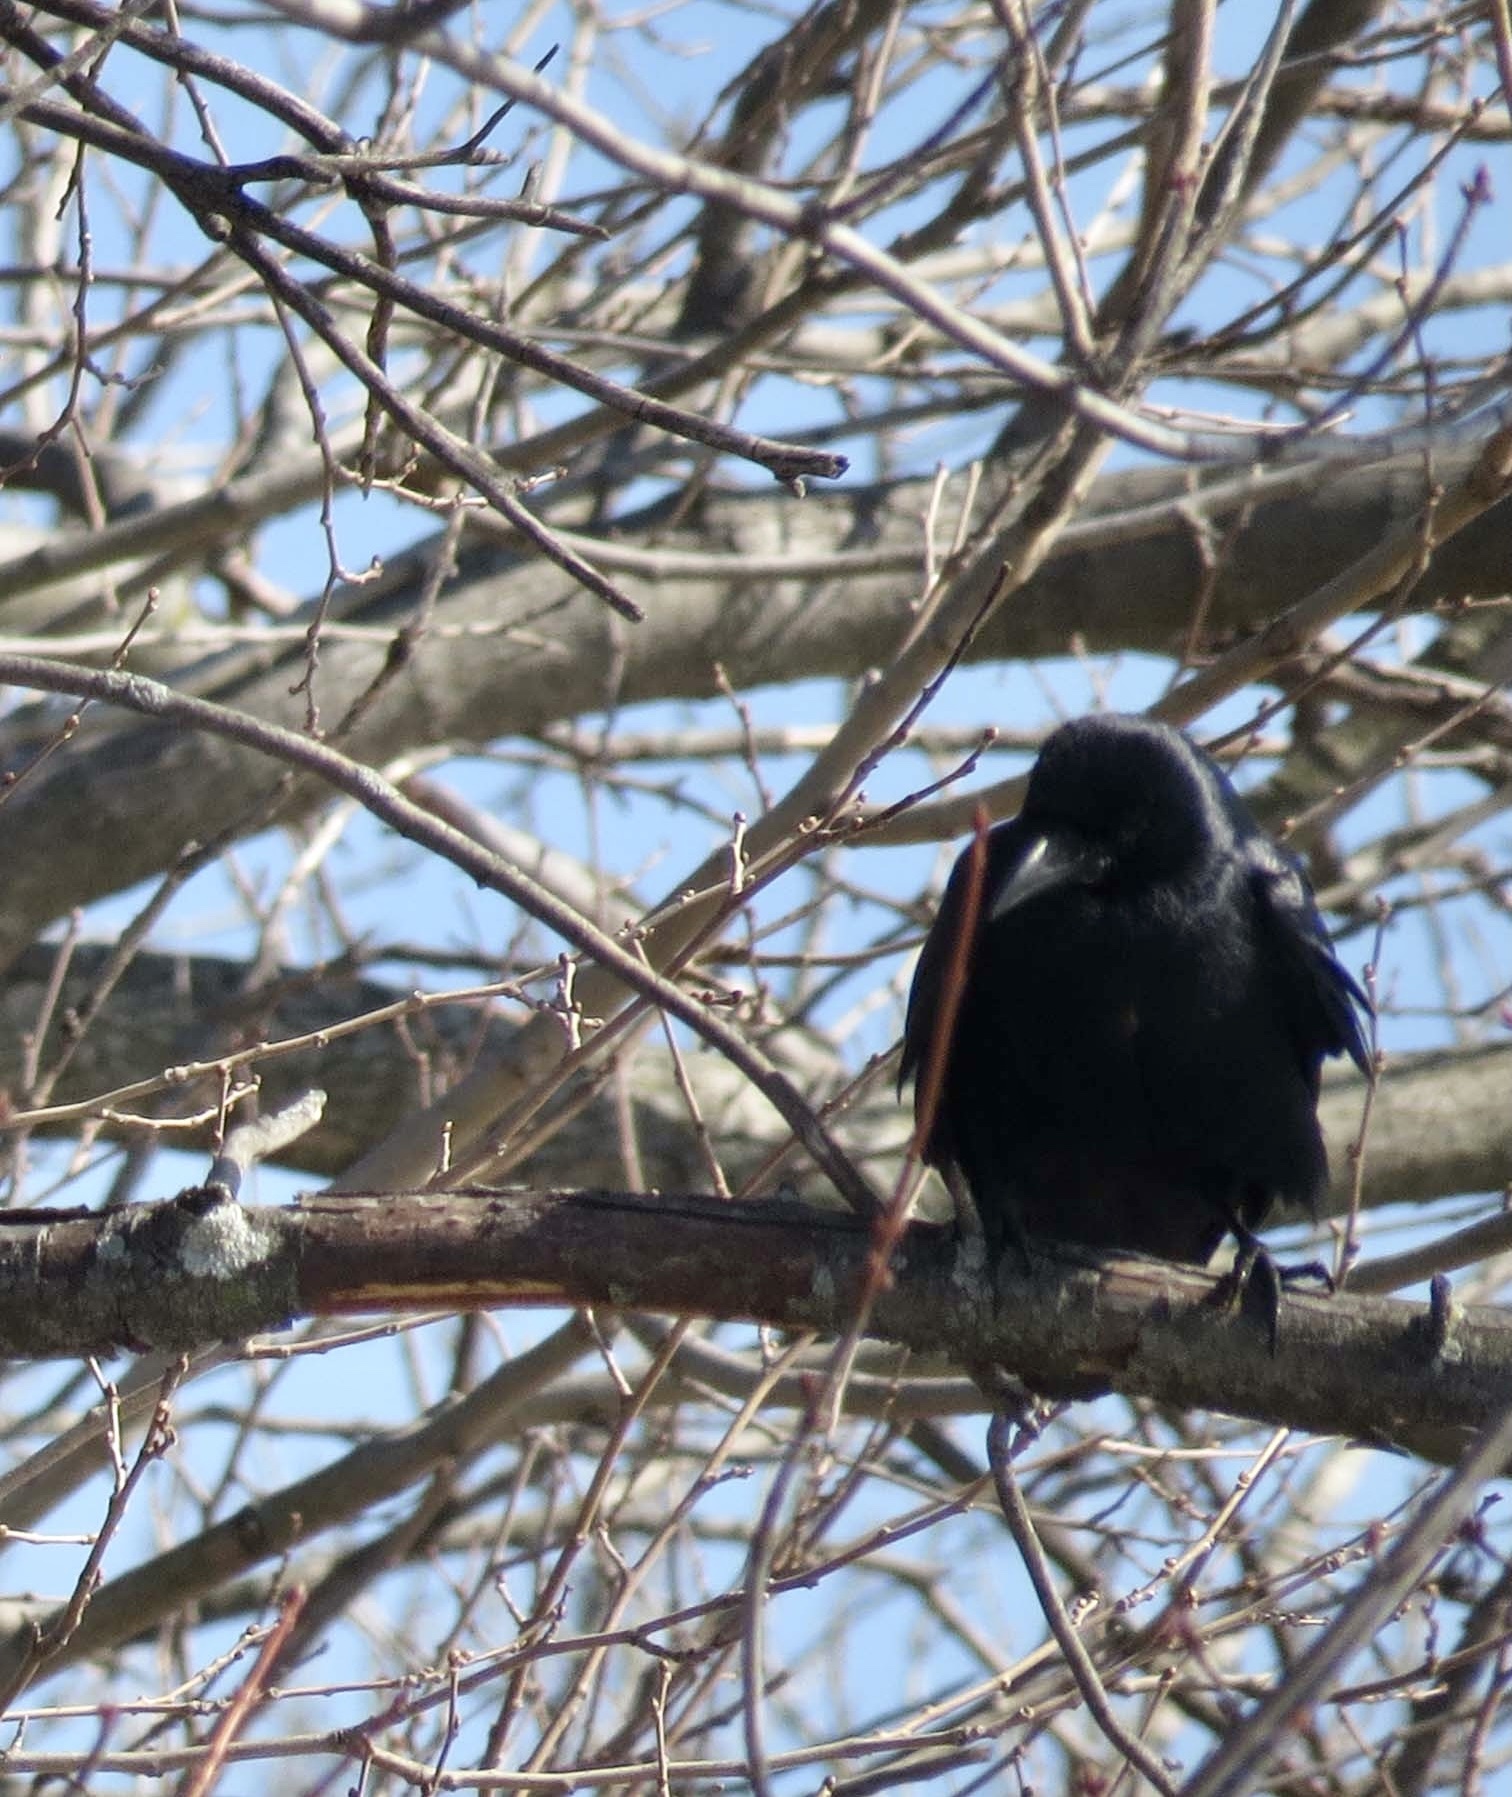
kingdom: Animalia
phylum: Chordata
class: Aves
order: Passeriformes
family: Corvidae
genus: Corvus
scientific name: Corvus ossifragus
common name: Fish crow
